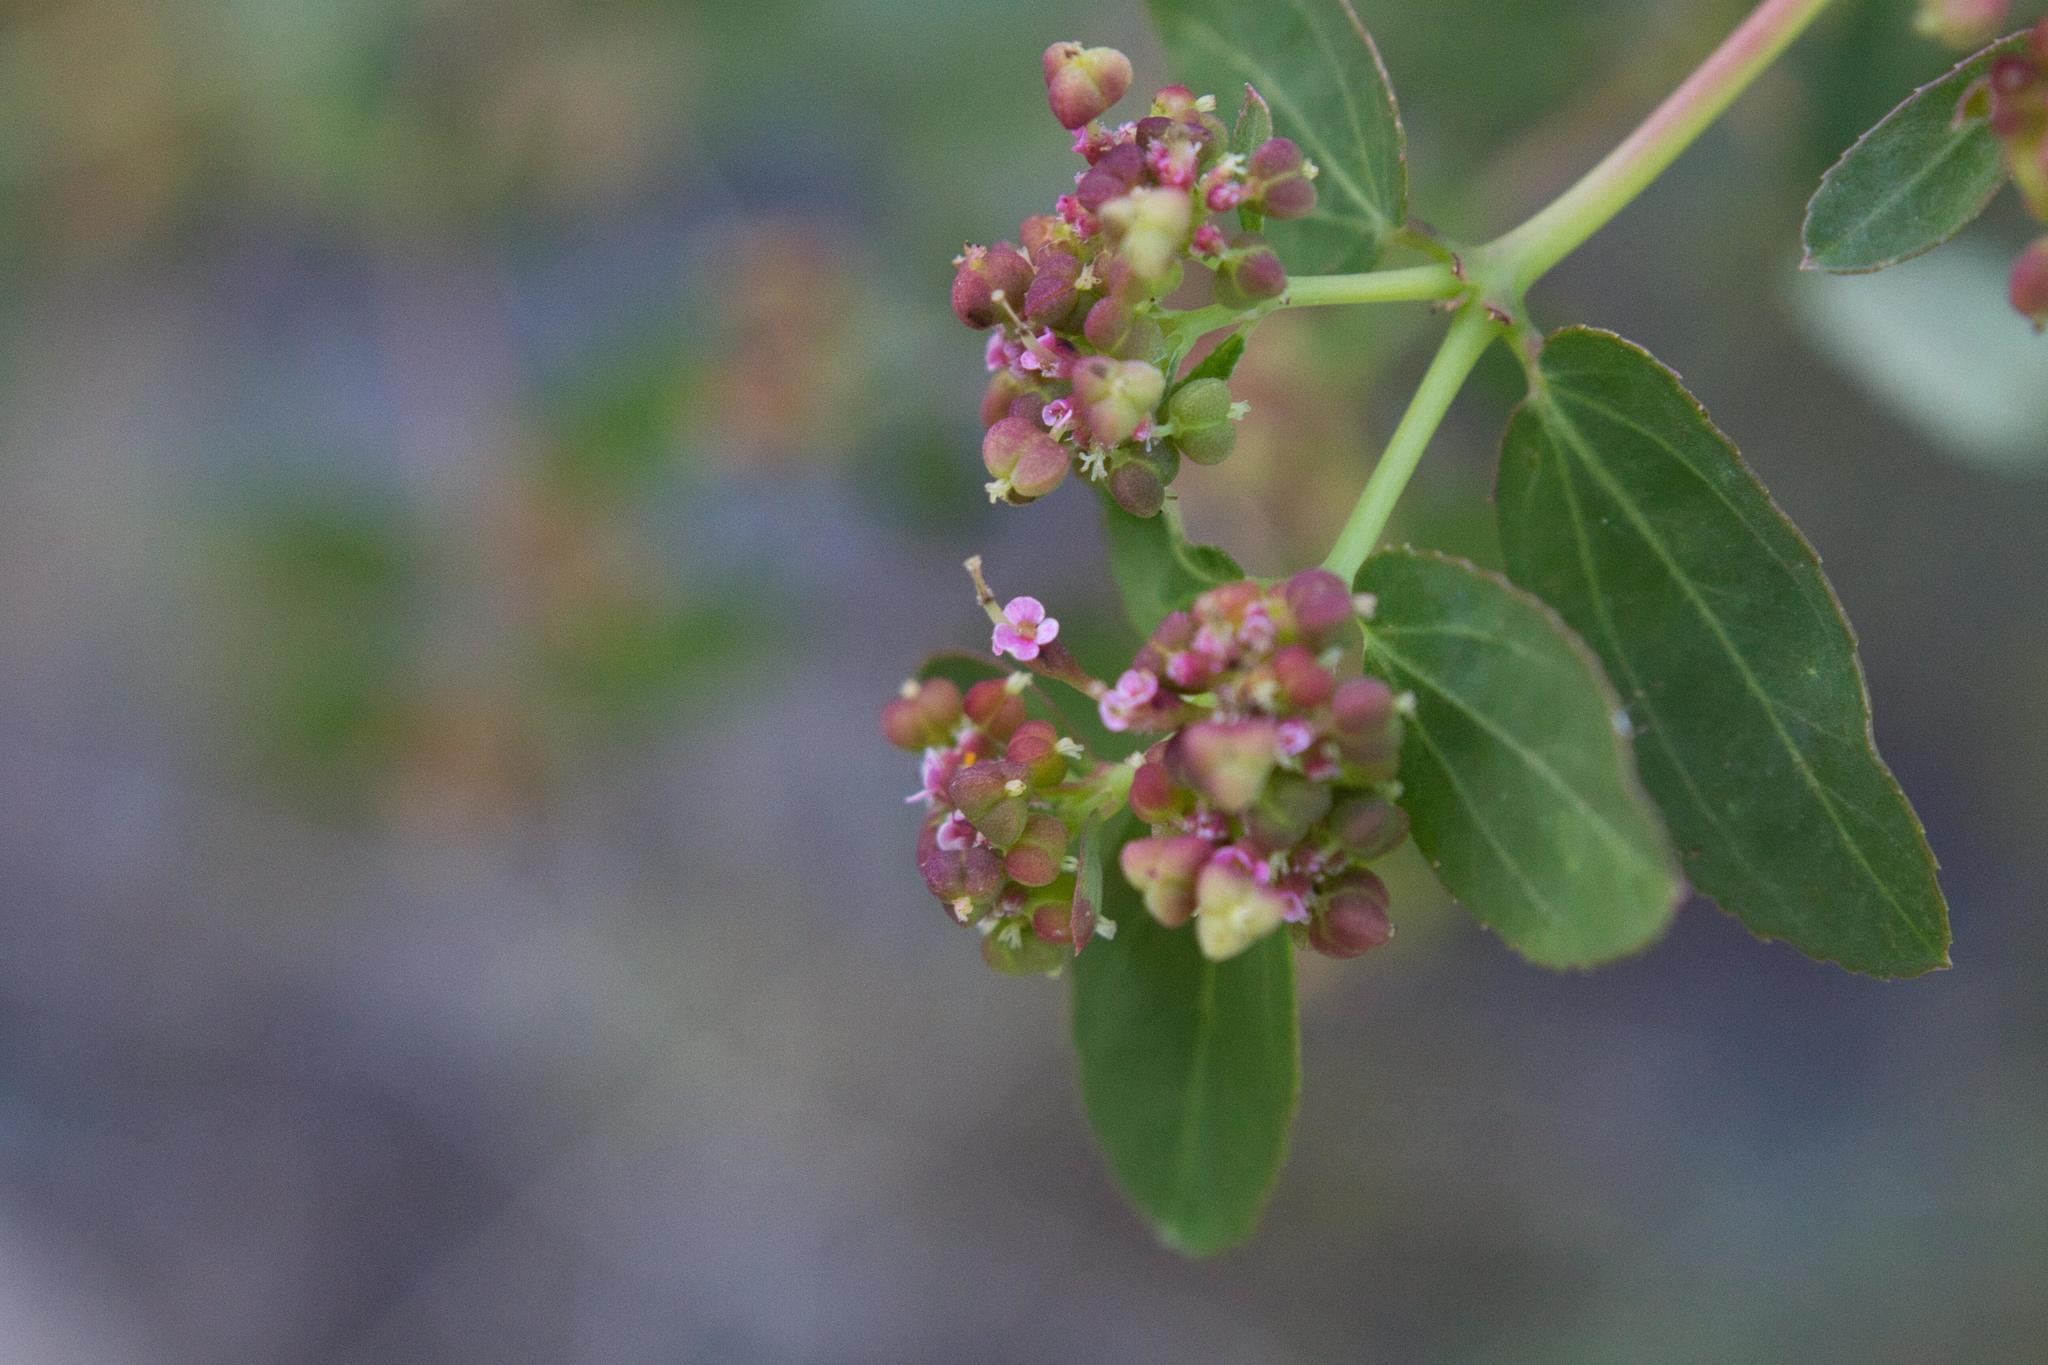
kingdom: Plantae
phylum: Tracheophyta
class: Magnoliopsida
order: Malpighiales
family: Euphorbiaceae
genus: Euphorbia
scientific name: Euphorbia hypericifolia
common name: Graceful sandmat
